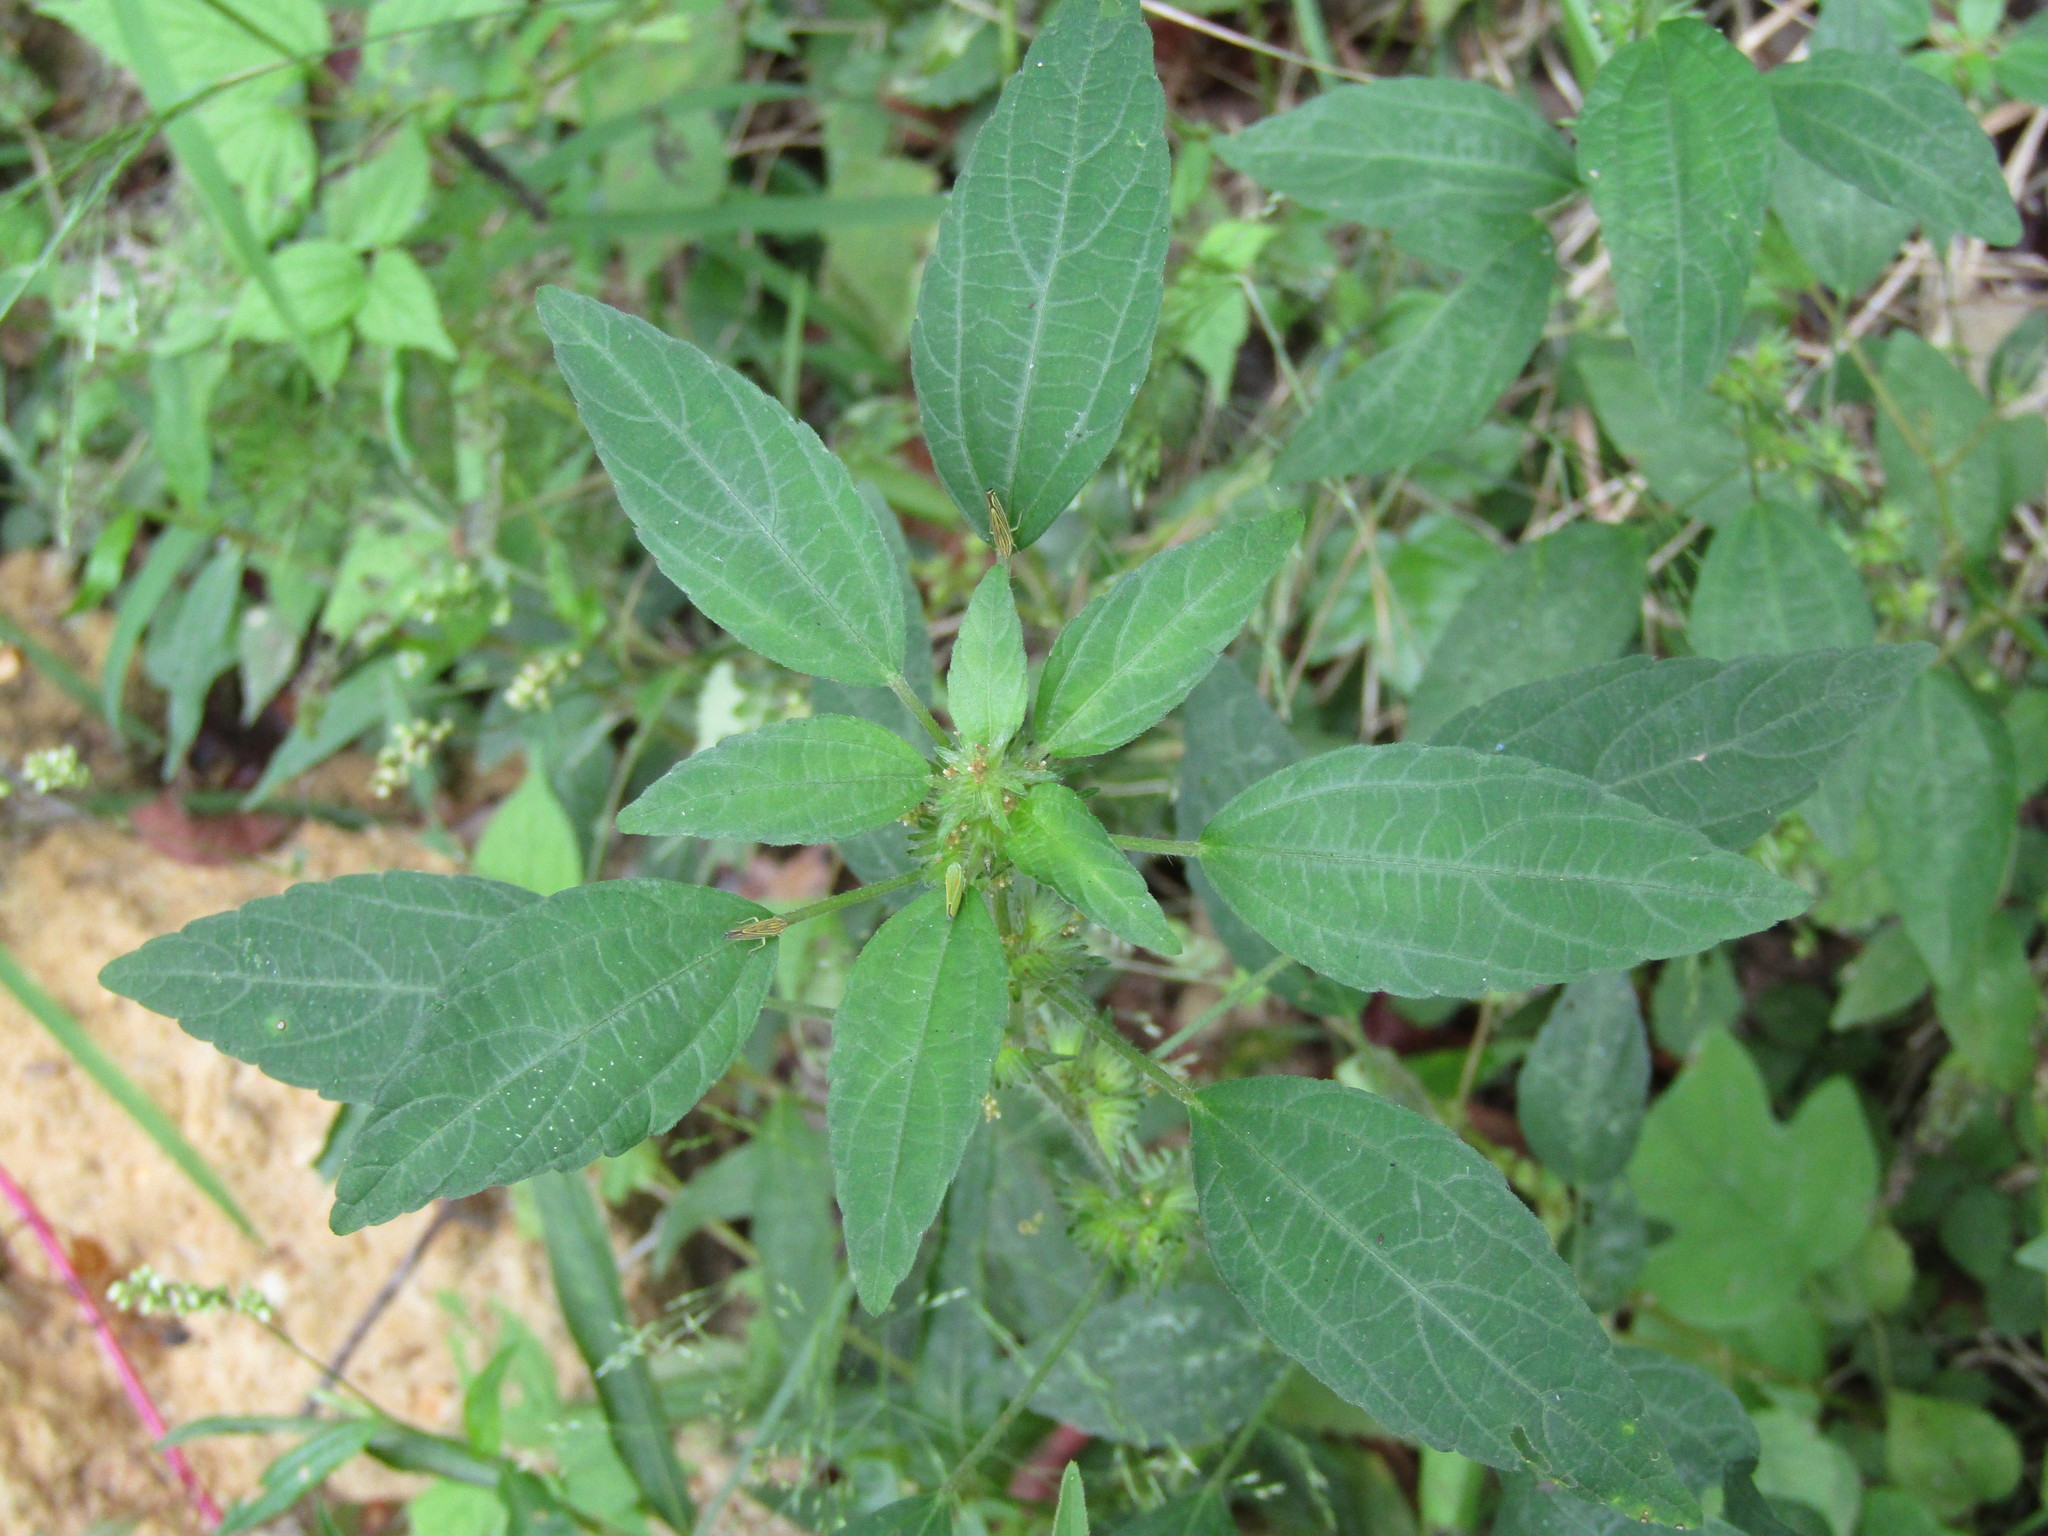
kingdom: Plantae
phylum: Tracheophyta
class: Magnoliopsida
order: Malpighiales
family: Euphorbiaceae
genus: Acalypha
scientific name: Acalypha virginica
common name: Virginia copperleaf
